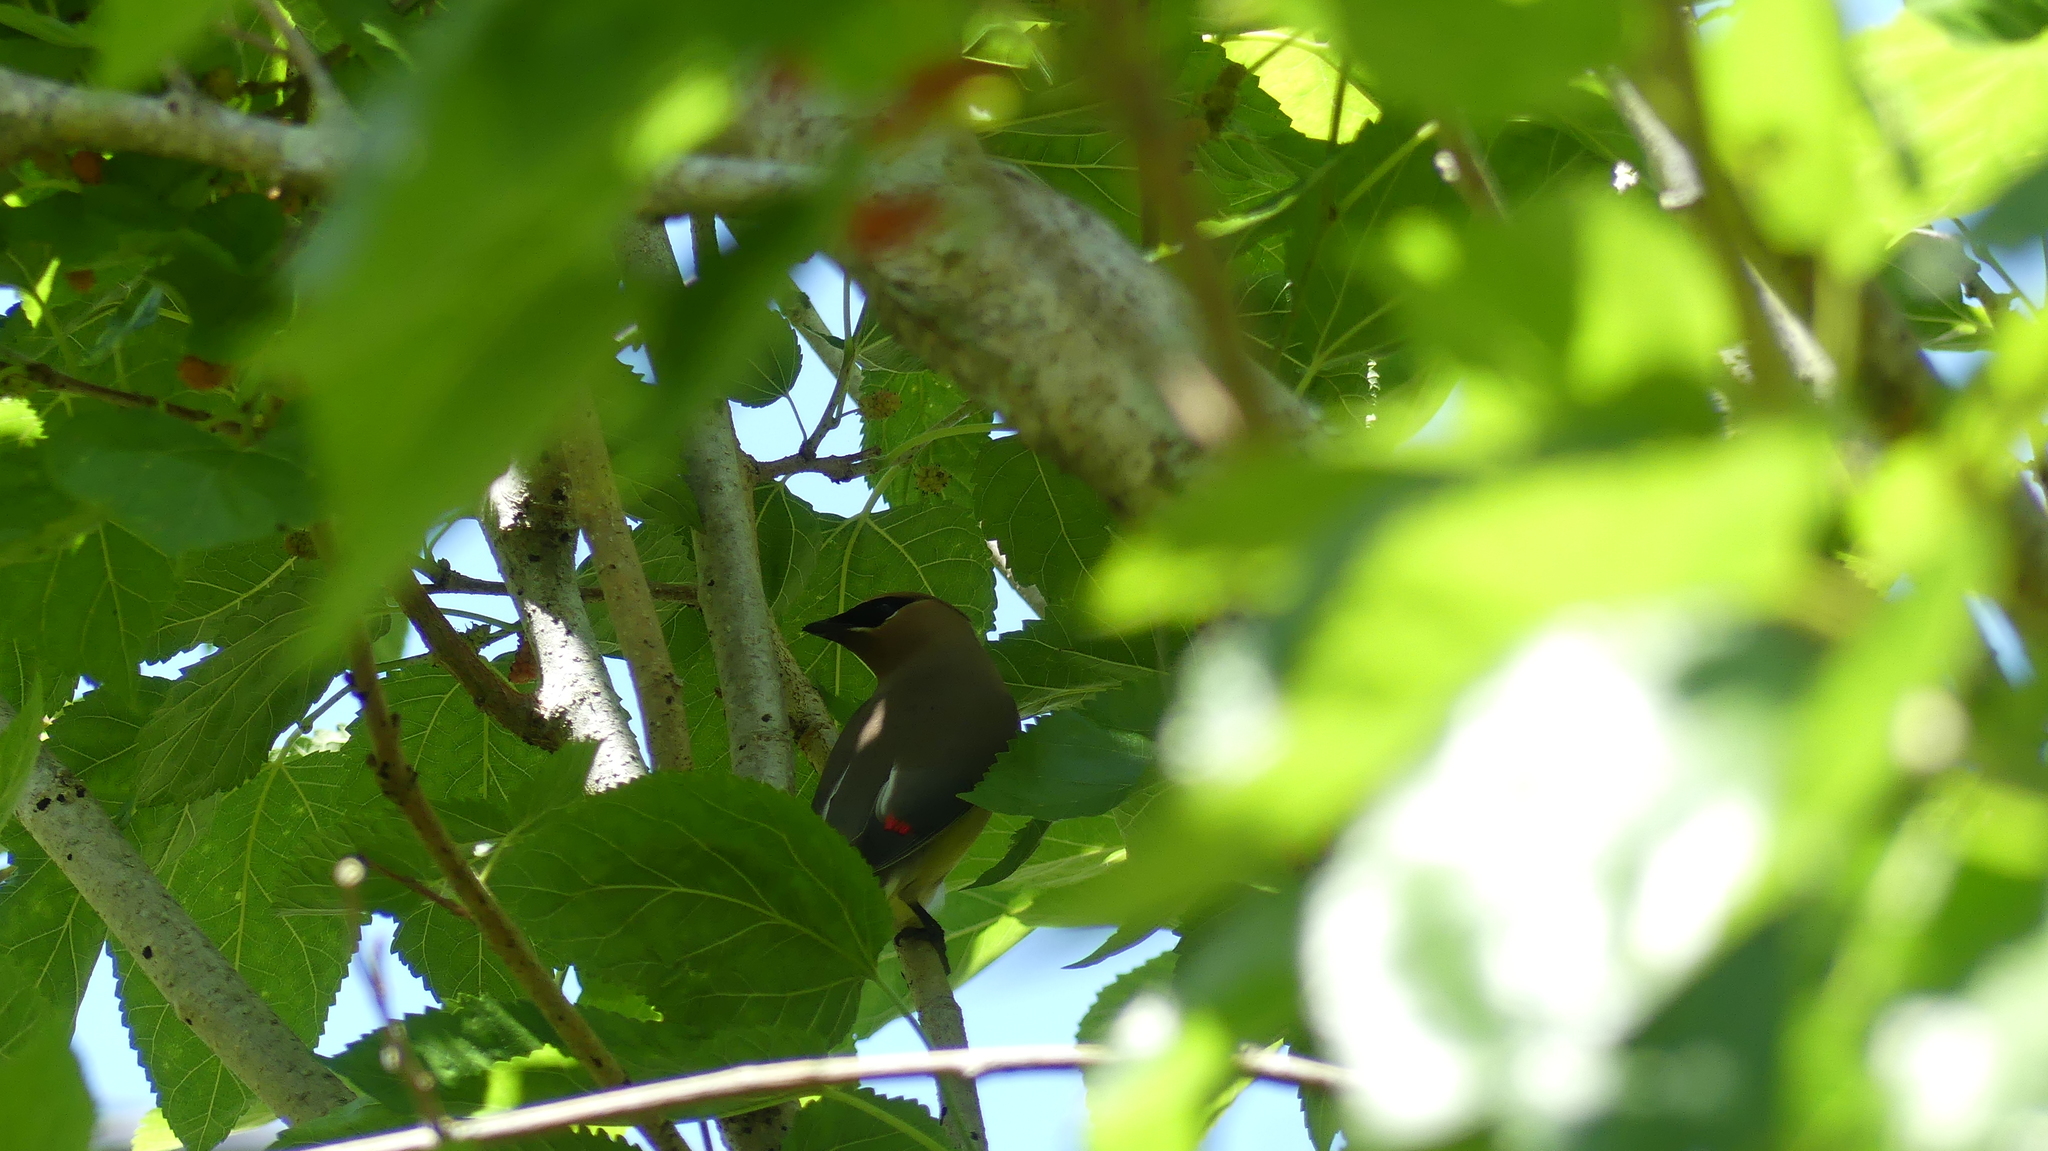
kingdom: Animalia
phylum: Chordata
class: Aves
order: Passeriformes
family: Bombycillidae
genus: Bombycilla
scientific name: Bombycilla cedrorum
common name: Cedar waxwing
